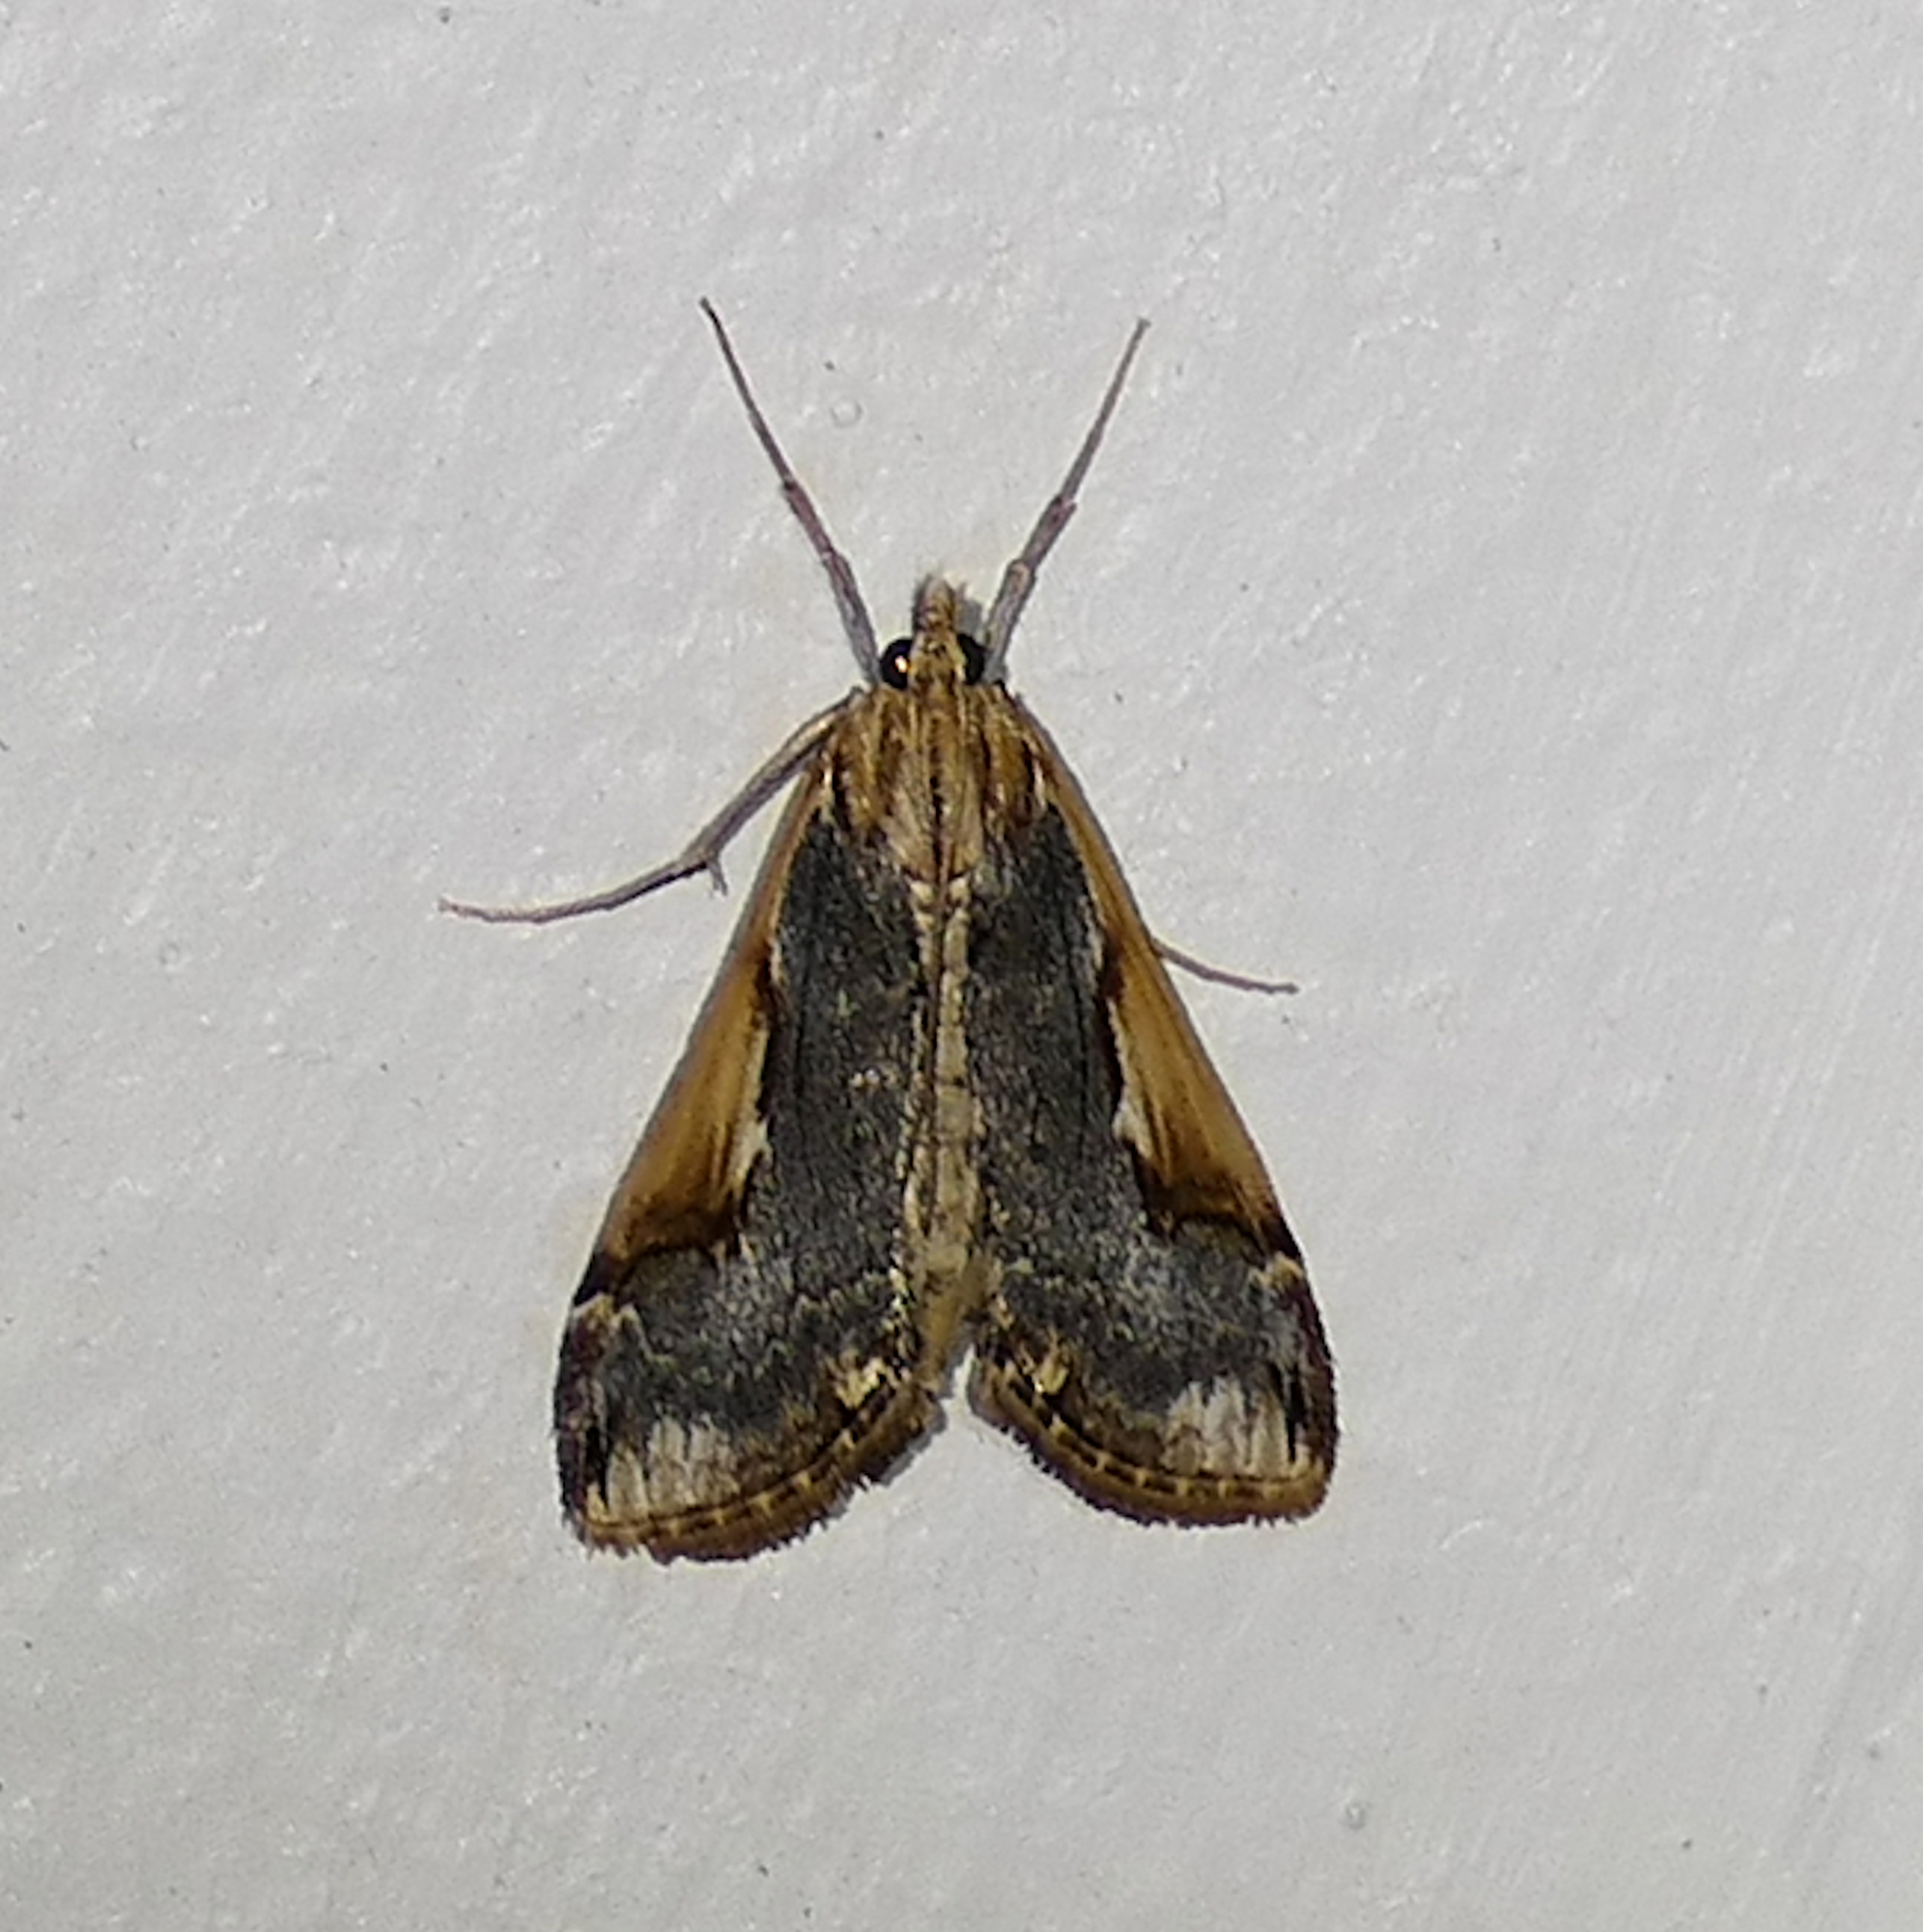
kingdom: Animalia
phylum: Arthropoda
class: Insecta
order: Lepidoptera
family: Crambidae
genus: Loxostege
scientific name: Loxostege albiceralis
